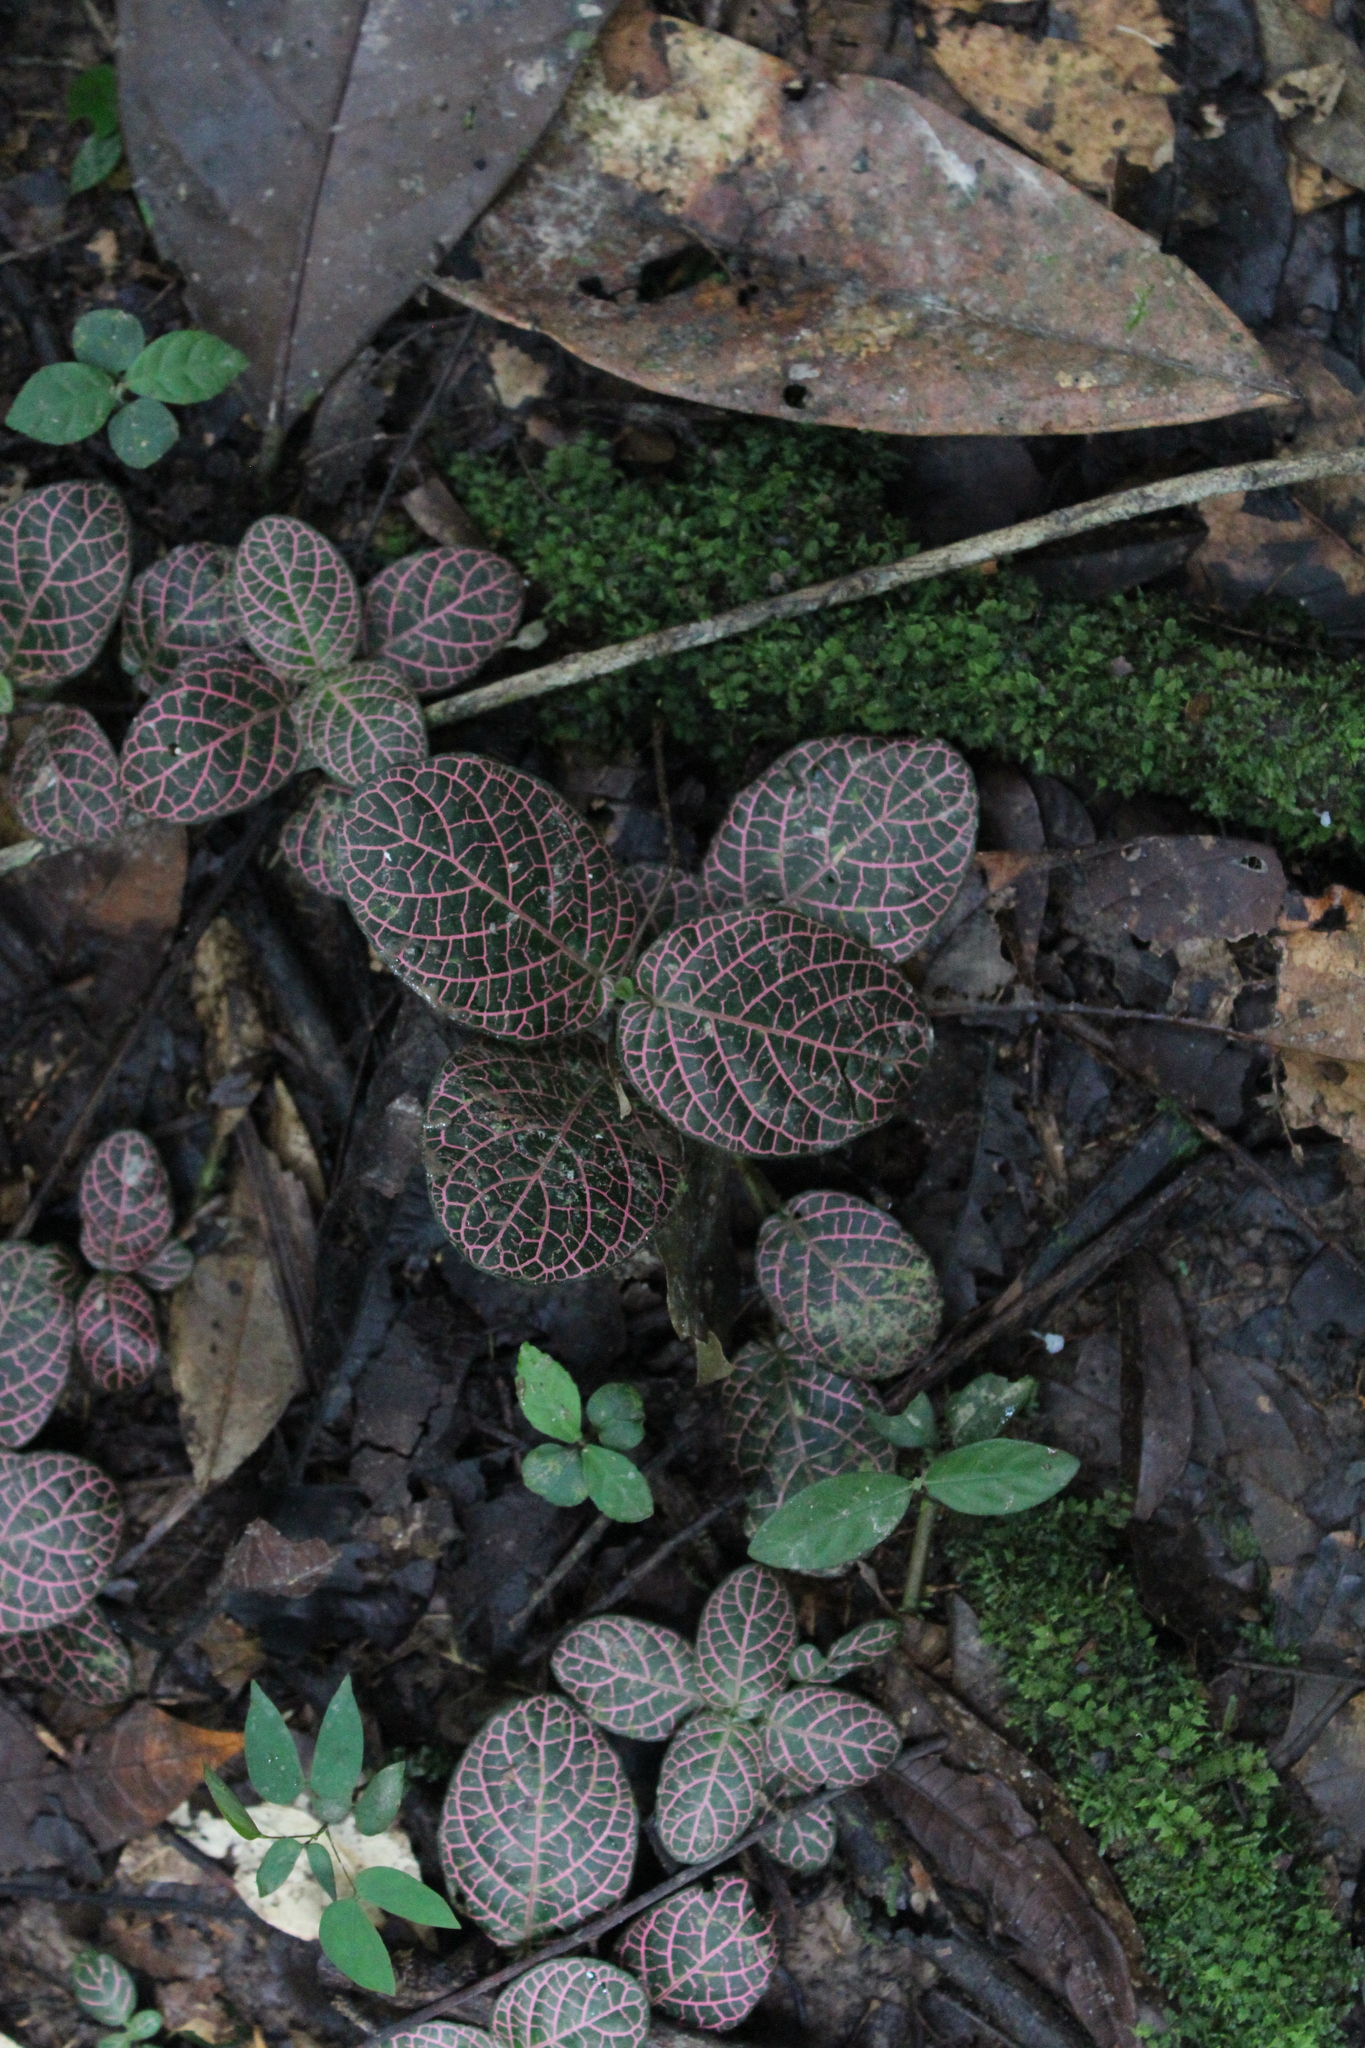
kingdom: Plantae
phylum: Tracheophyta
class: Magnoliopsida
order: Lamiales
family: Acanthaceae
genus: Fittonia
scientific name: Fittonia albivenis
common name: Mosaic-plant
